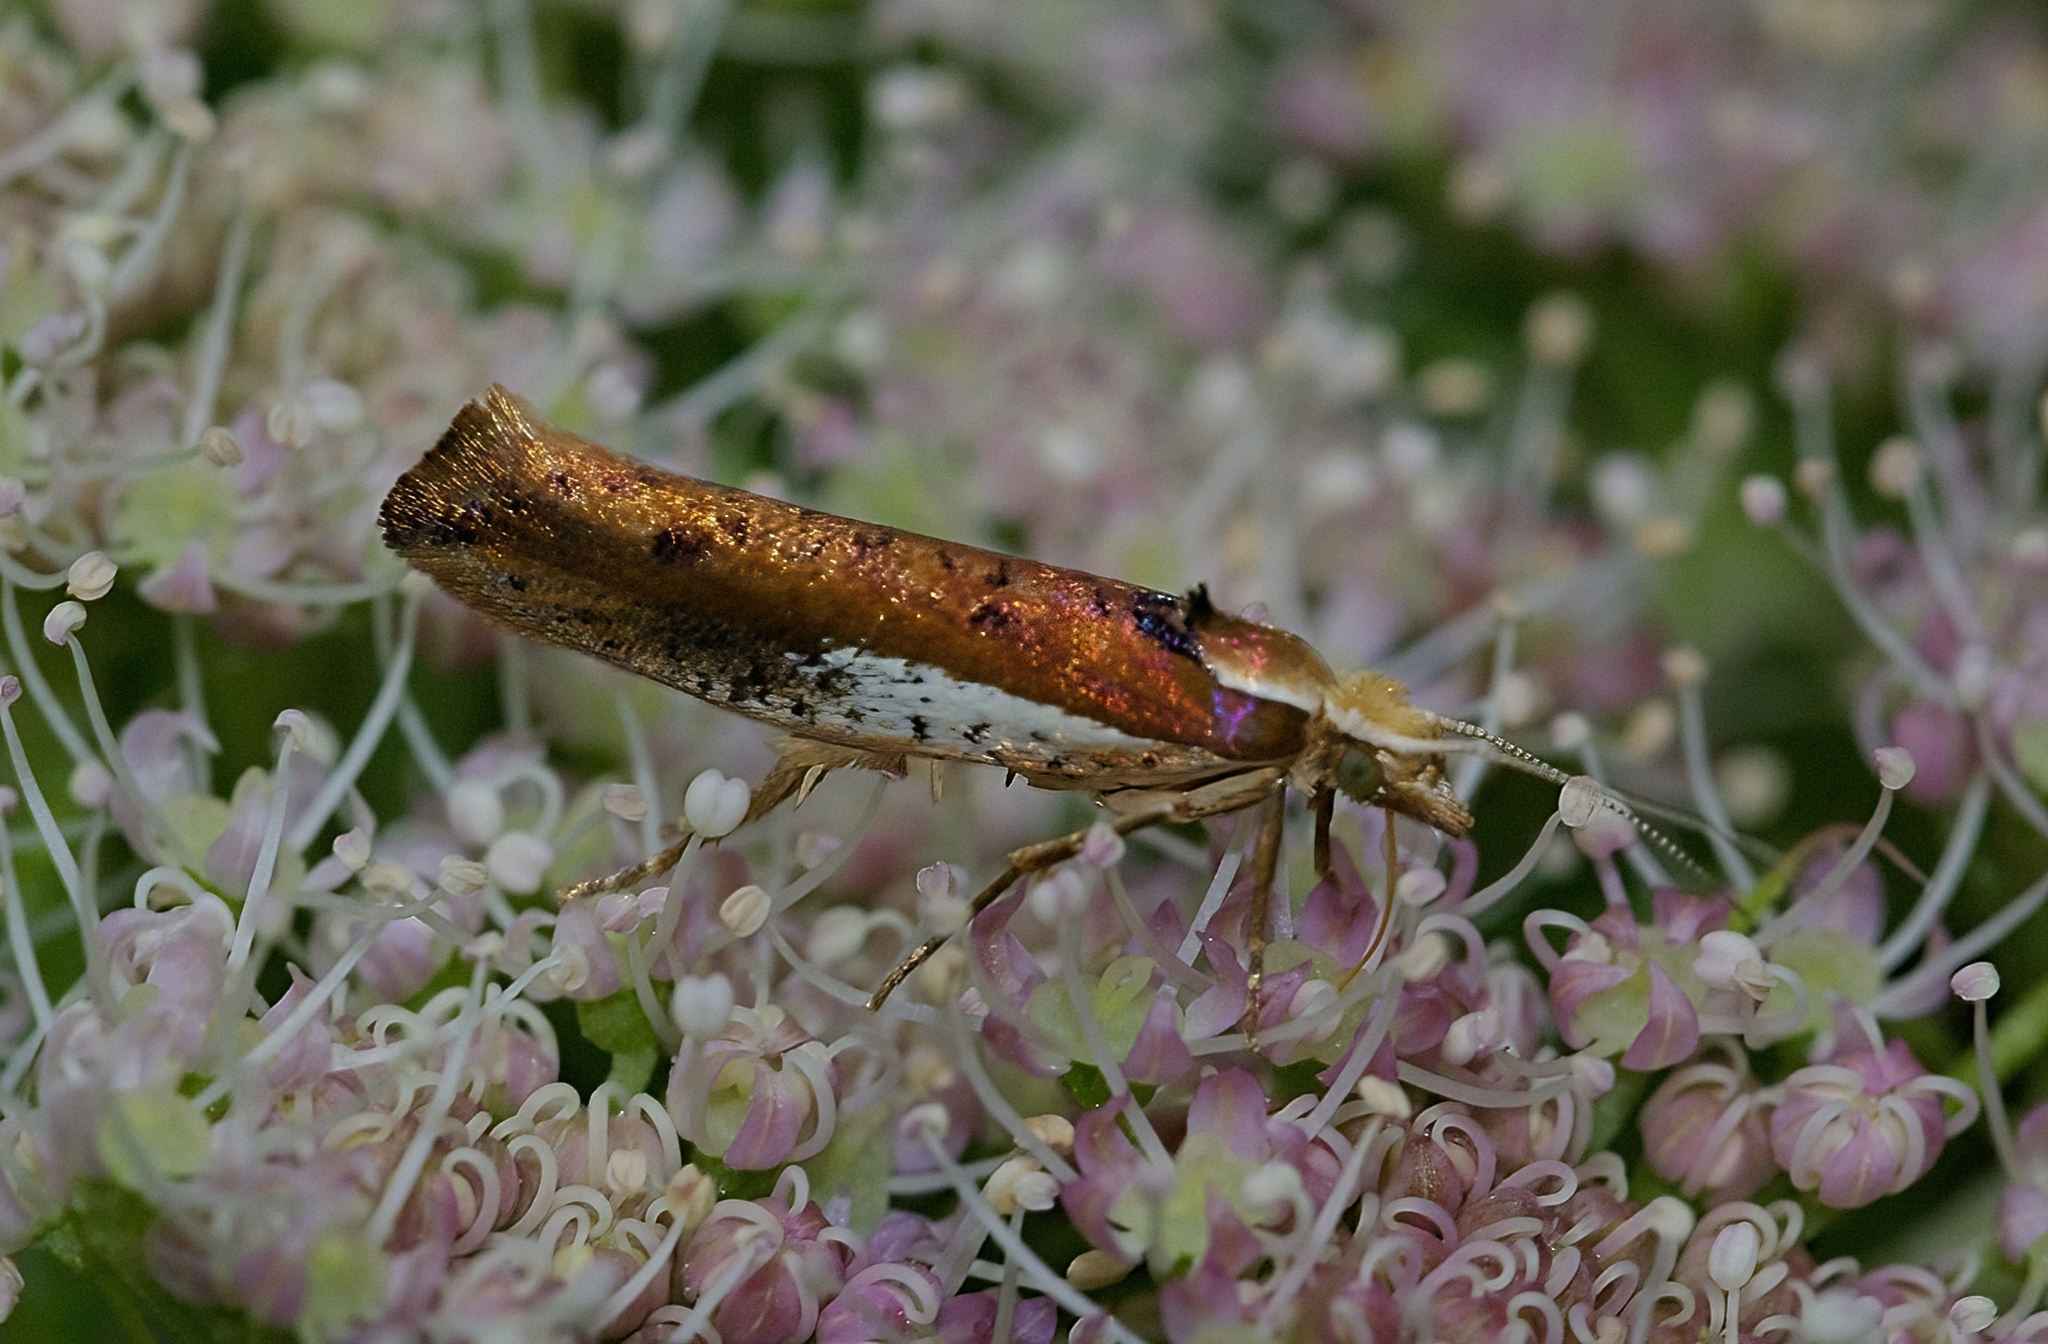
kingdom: Animalia
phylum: Arthropoda
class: Insecta
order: Lepidoptera
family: Ypsolophidae
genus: Ypsolopha
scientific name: Ypsolopha parenthesella
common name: White-shouldered smudge
